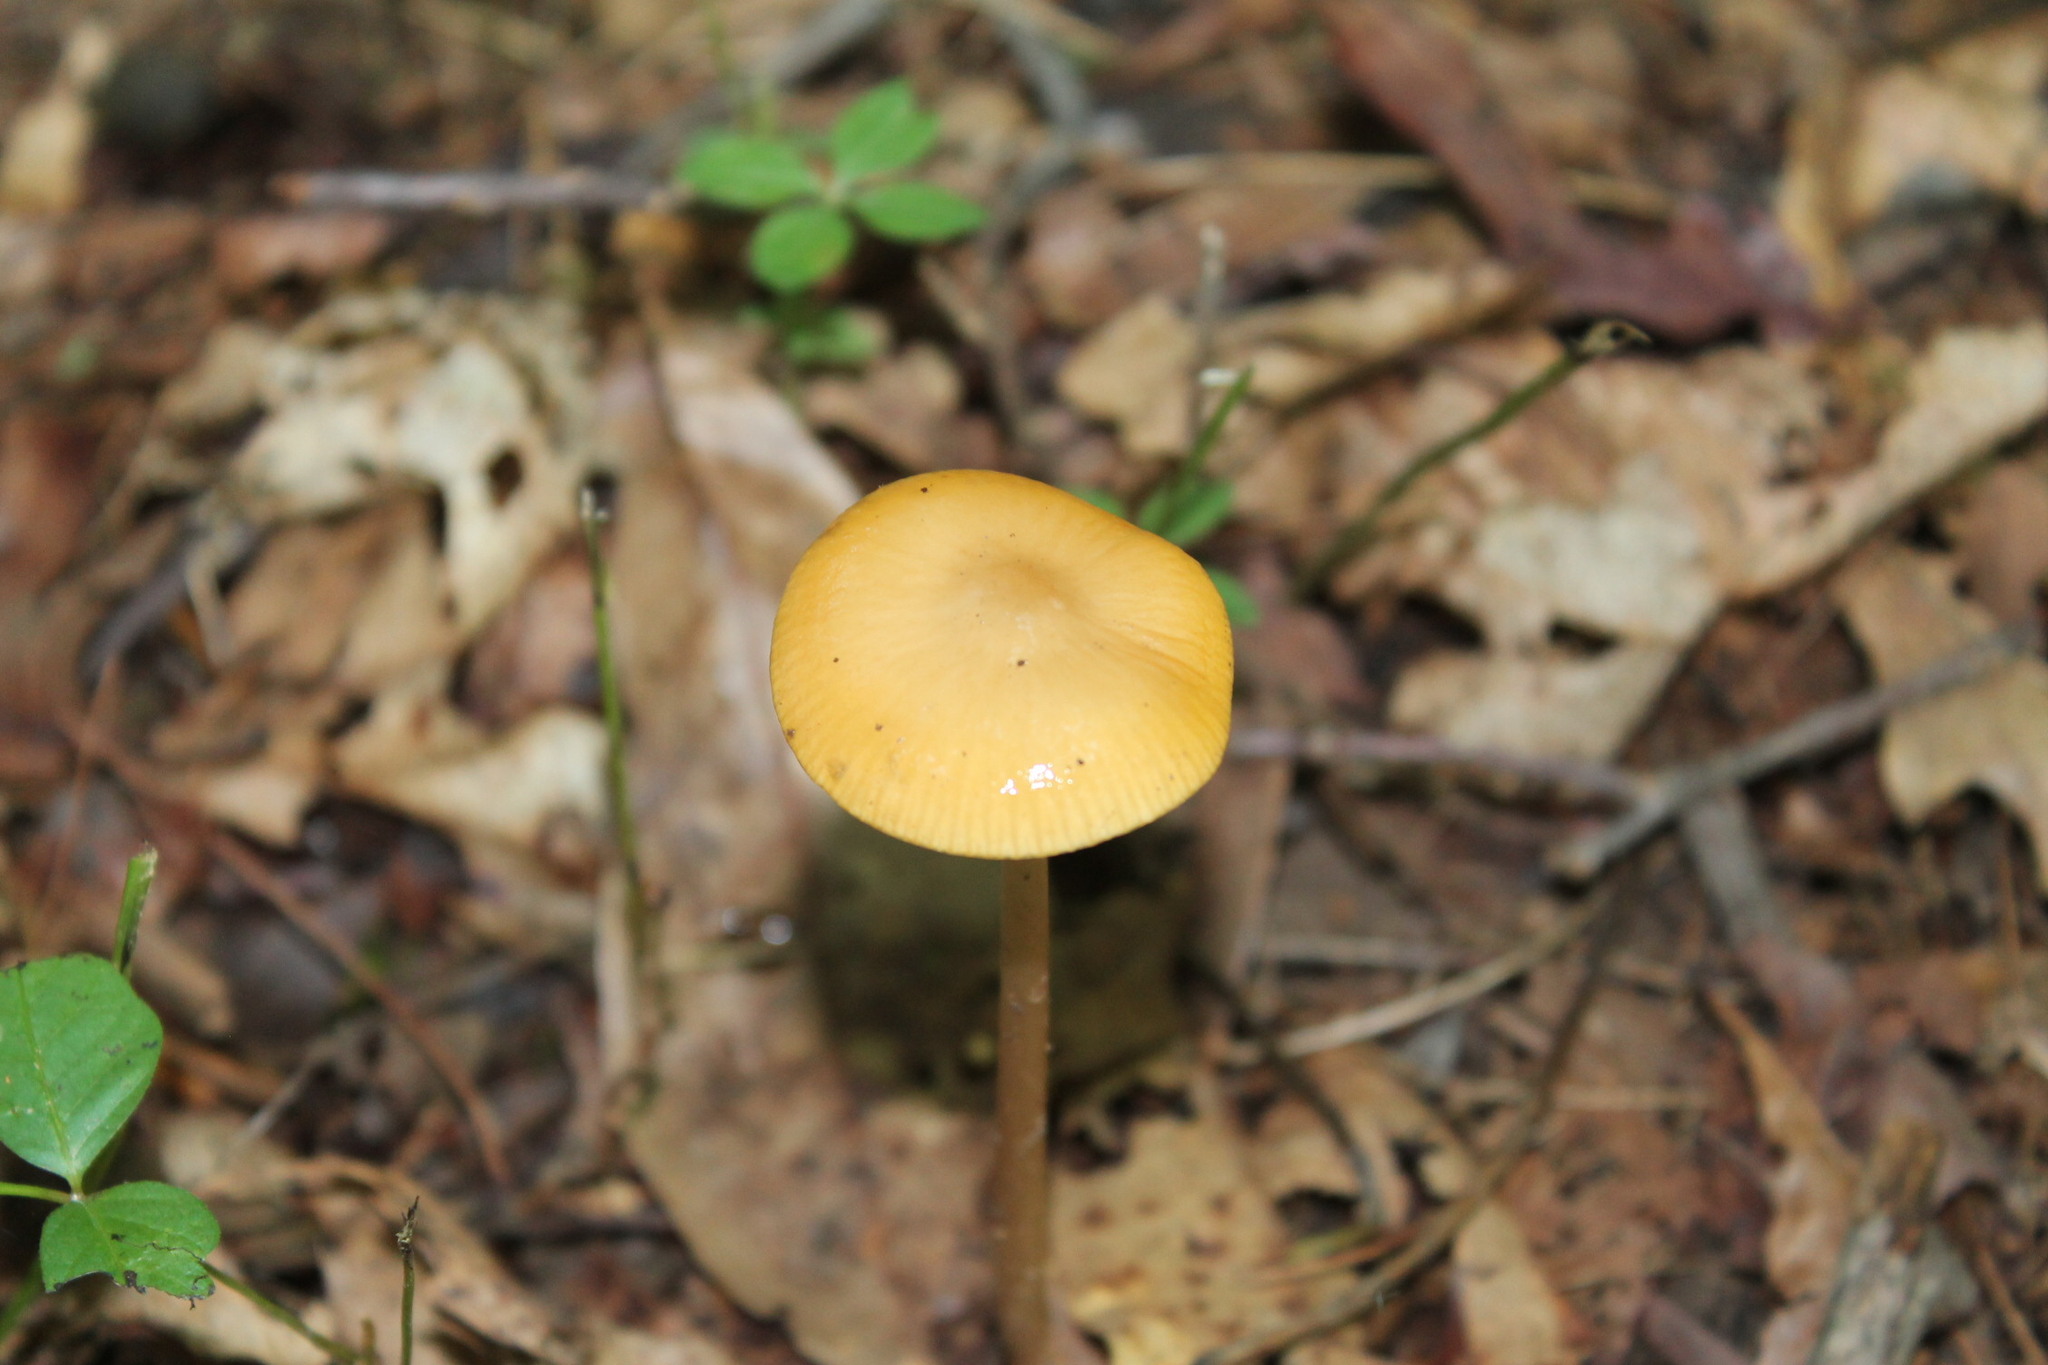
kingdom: Fungi
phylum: Basidiomycota
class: Agaricomycetes
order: Agaricales
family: Pluteaceae
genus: Pluteus
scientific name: Pluteus chrysophlebius
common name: Yellow deer mushroom
